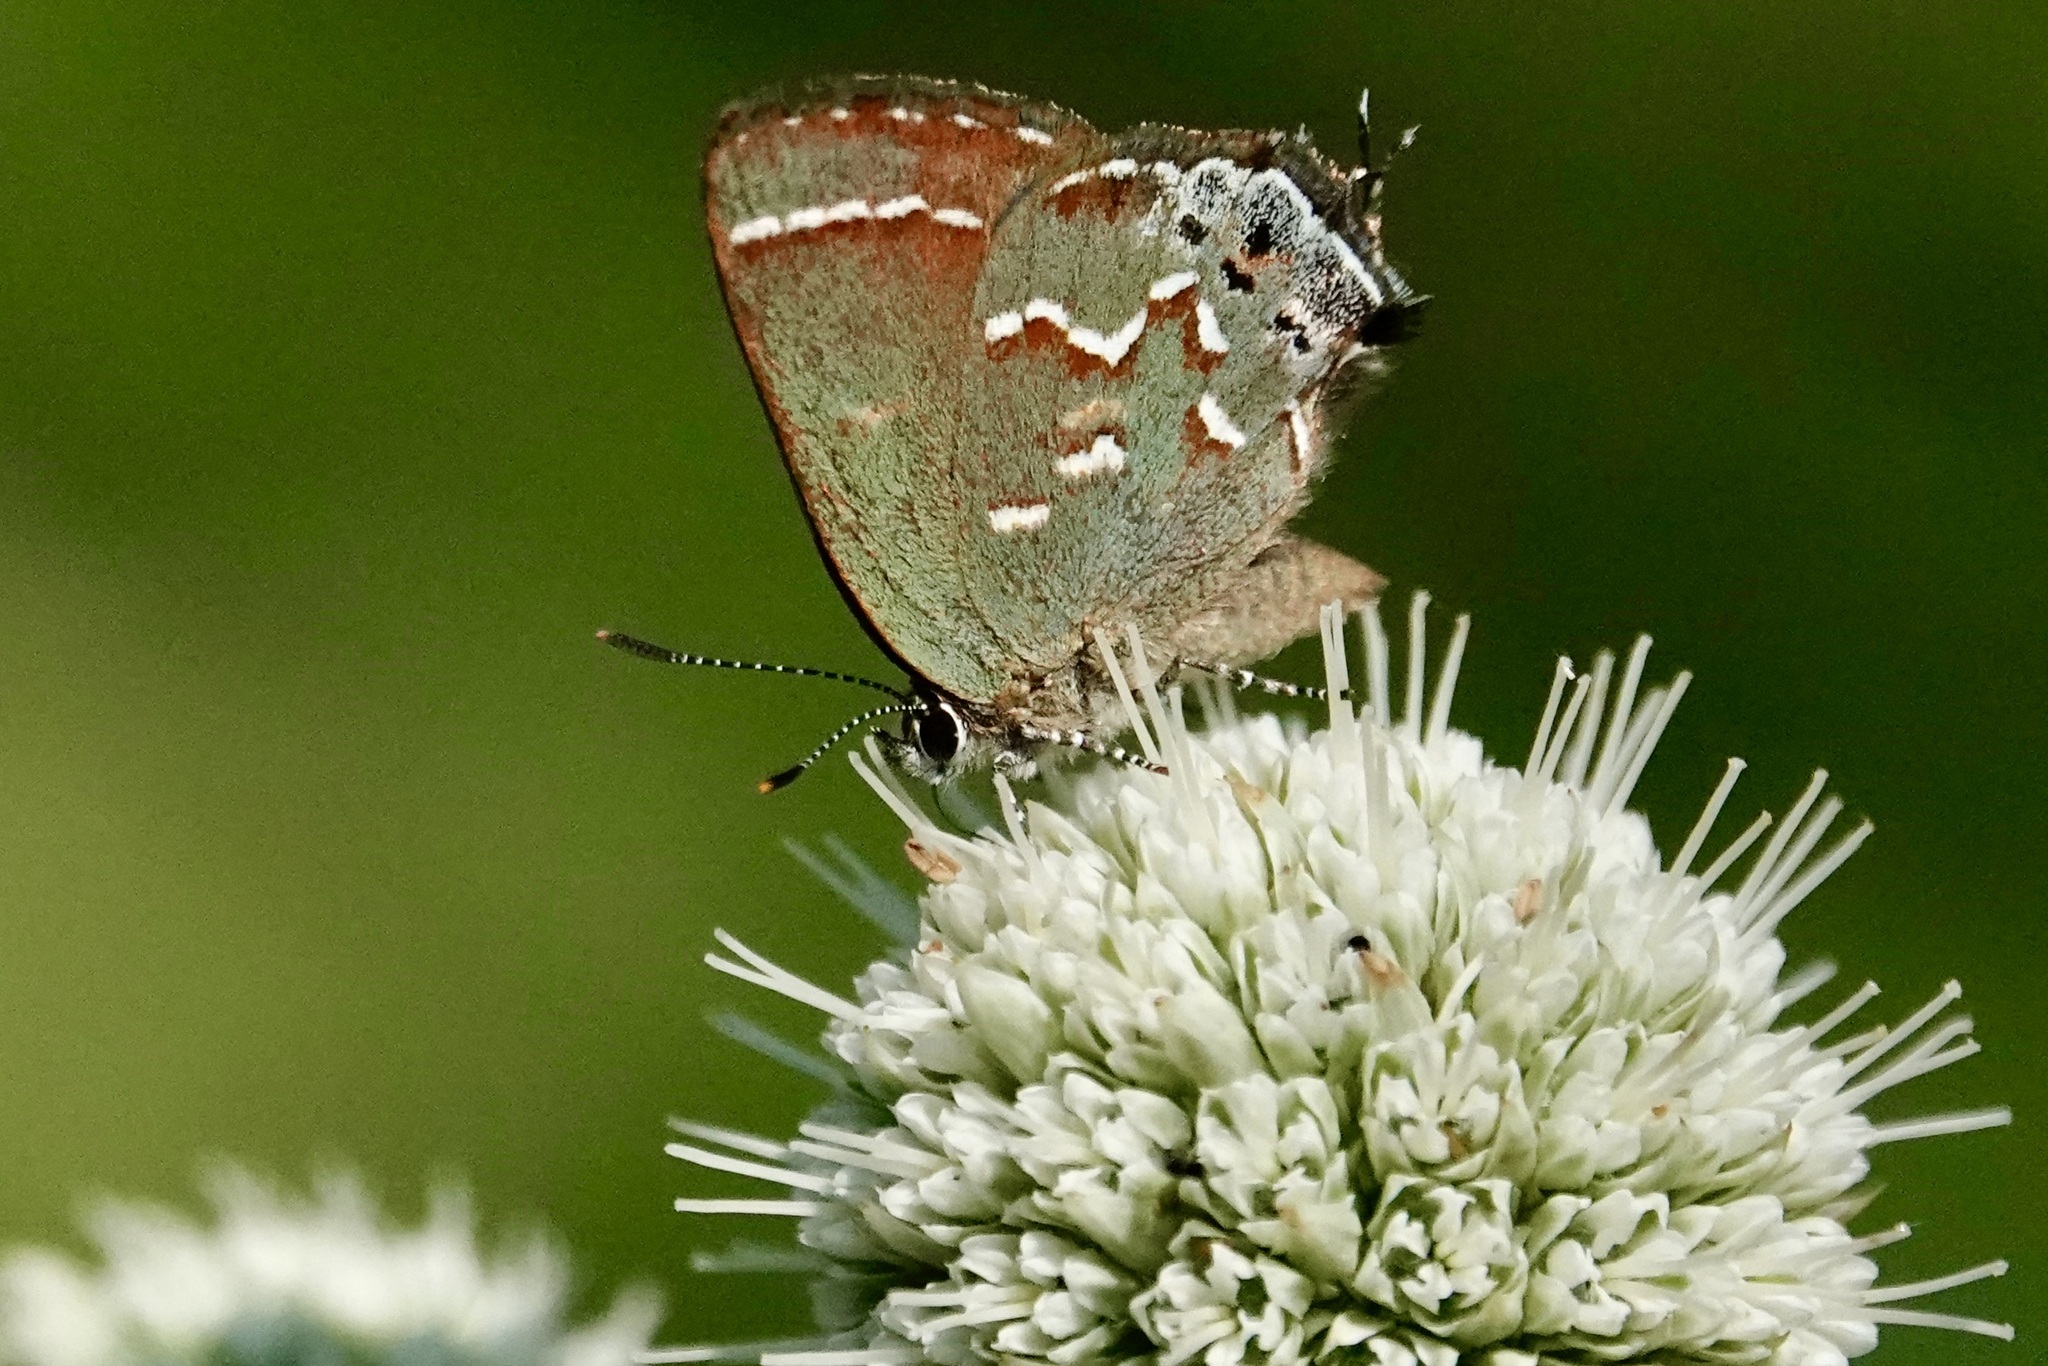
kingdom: Animalia
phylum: Arthropoda
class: Insecta
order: Lepidoptera
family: Lycaenidae
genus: Mitoura
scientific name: Mitoura gryneus
